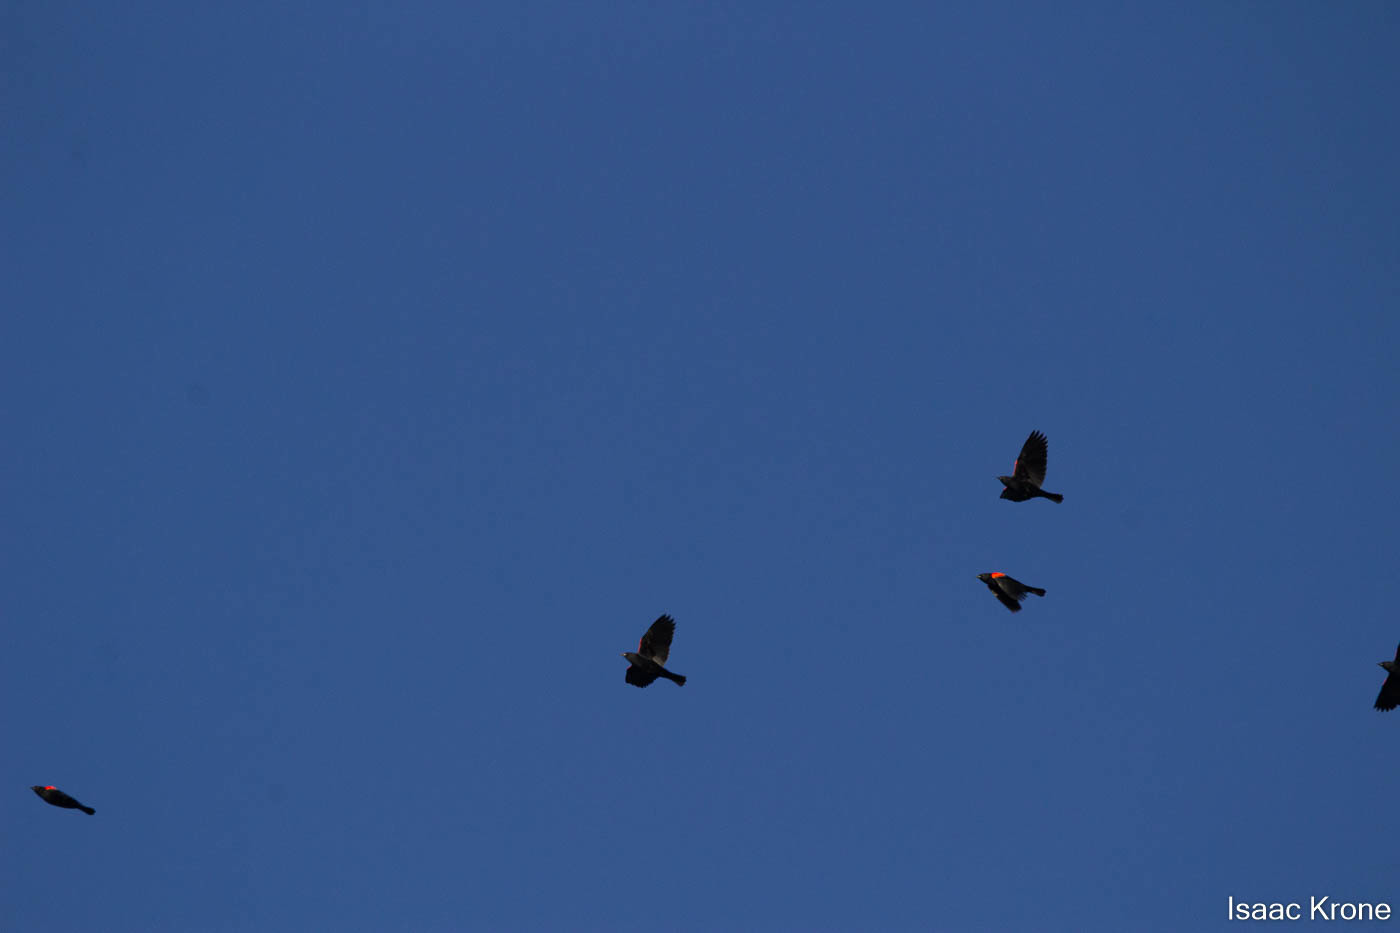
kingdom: Animalia
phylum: Chordata
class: Aves
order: Passeriformes
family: Icteridae
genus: Agelaius
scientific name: Agelaius phoeniceus
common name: Red-winged blackbird
